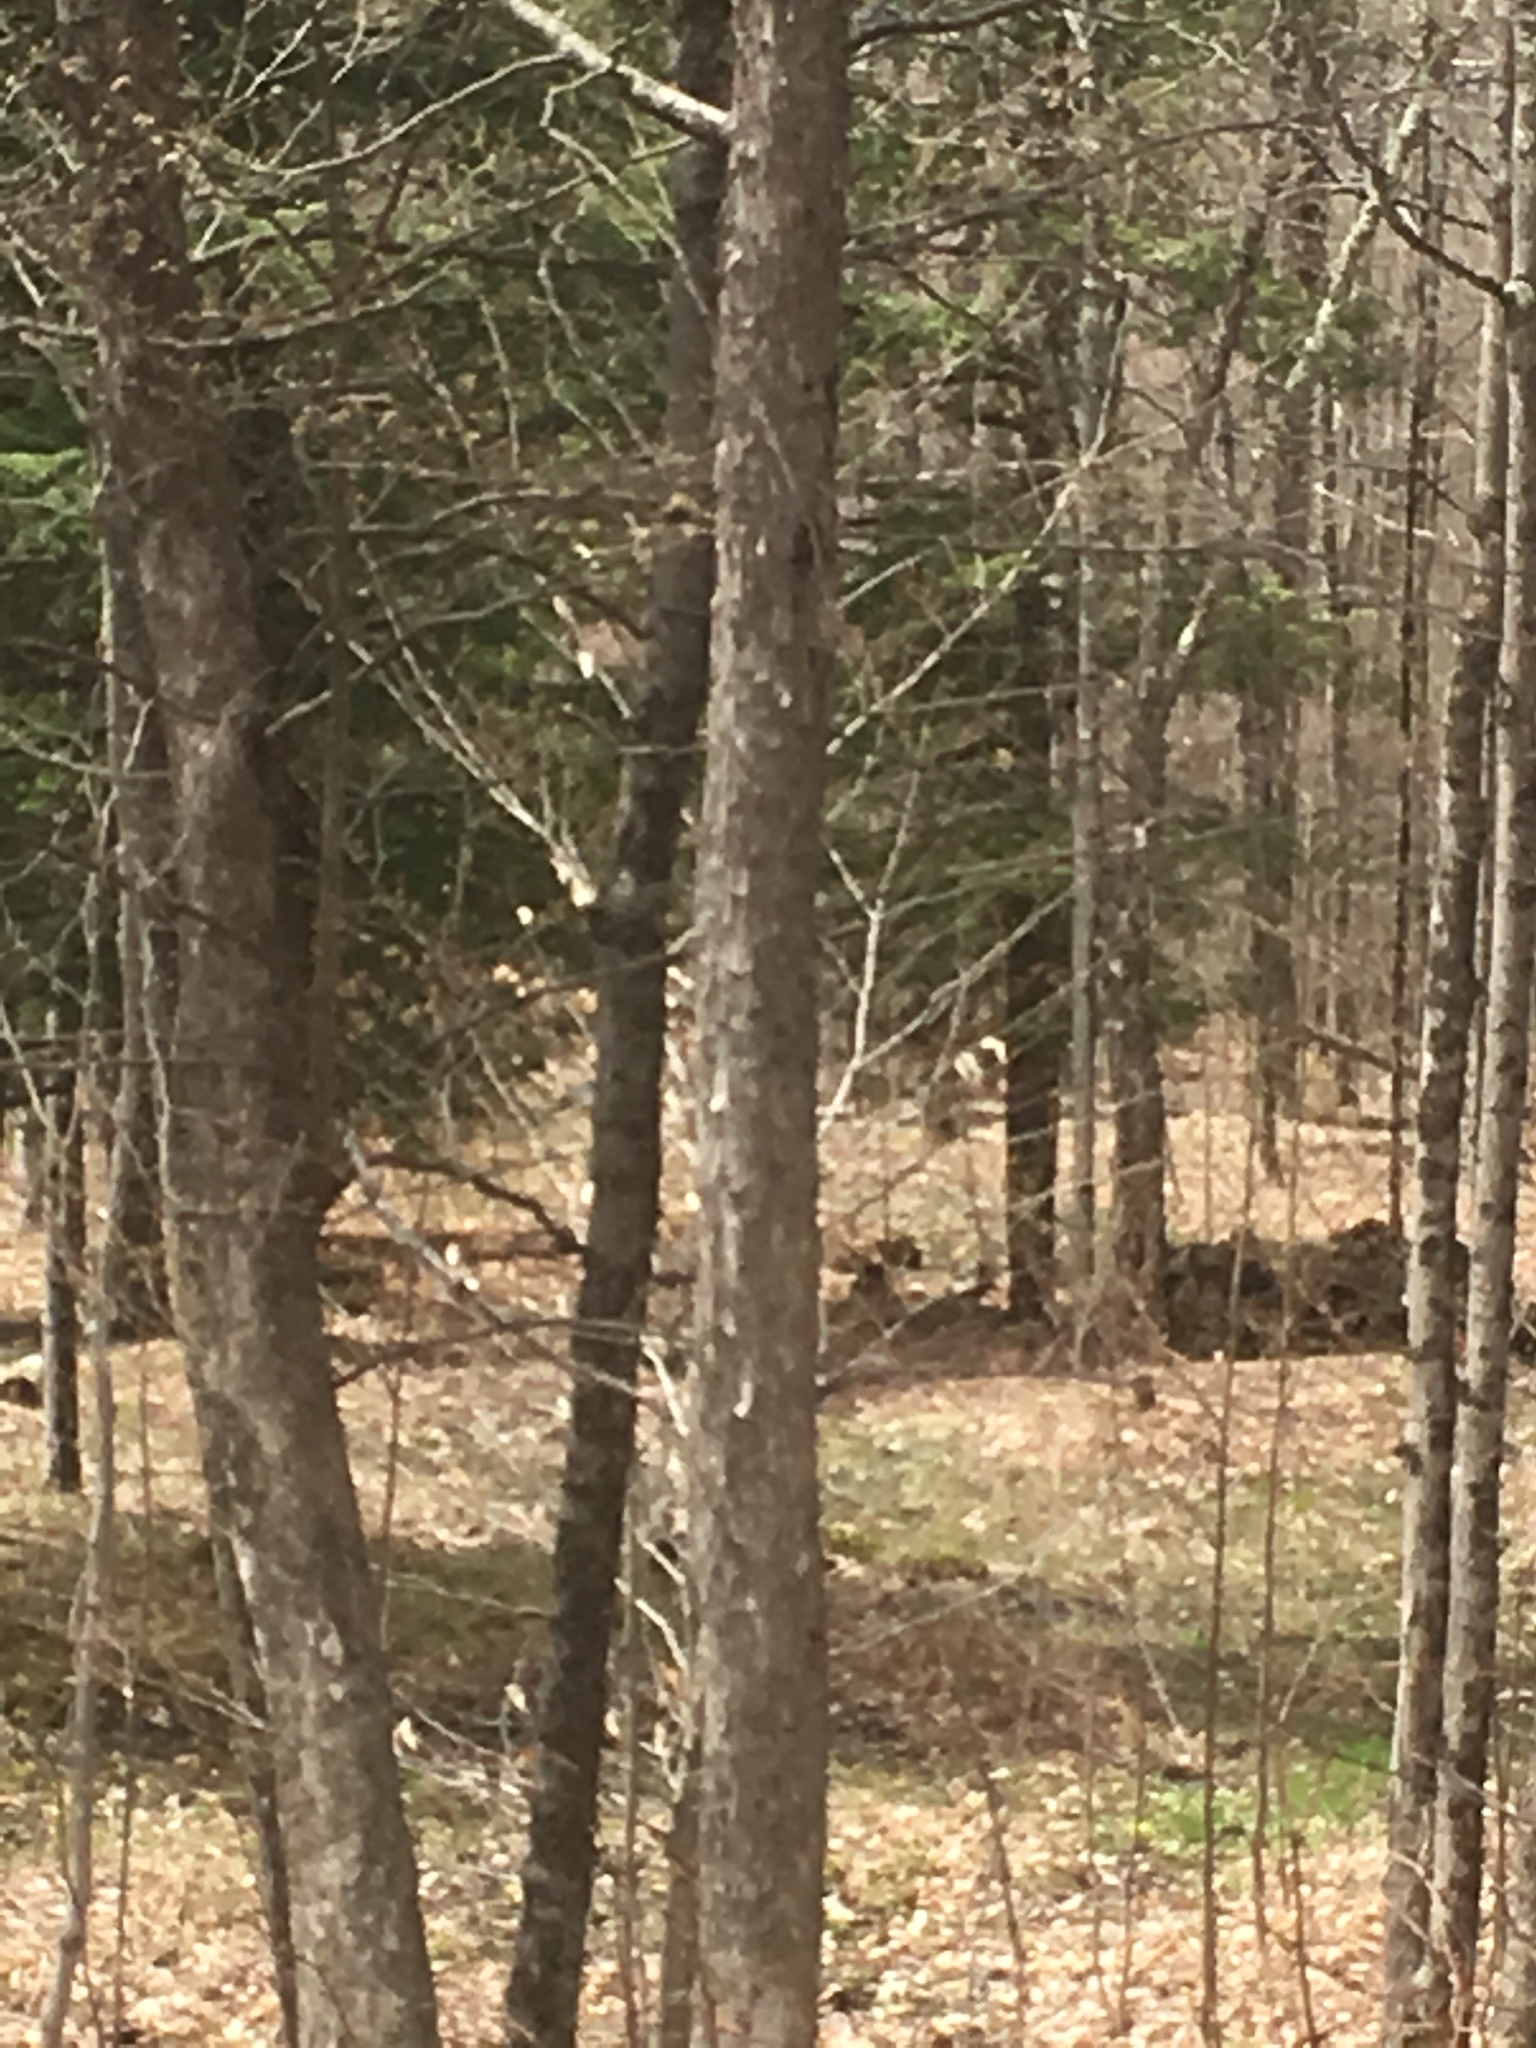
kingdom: Plantae
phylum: Tracheophyta
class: Magnoliopsida
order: Fagales
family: Betulaceae
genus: Ostrya
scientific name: Ostrya virginiana
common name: Ironwood
